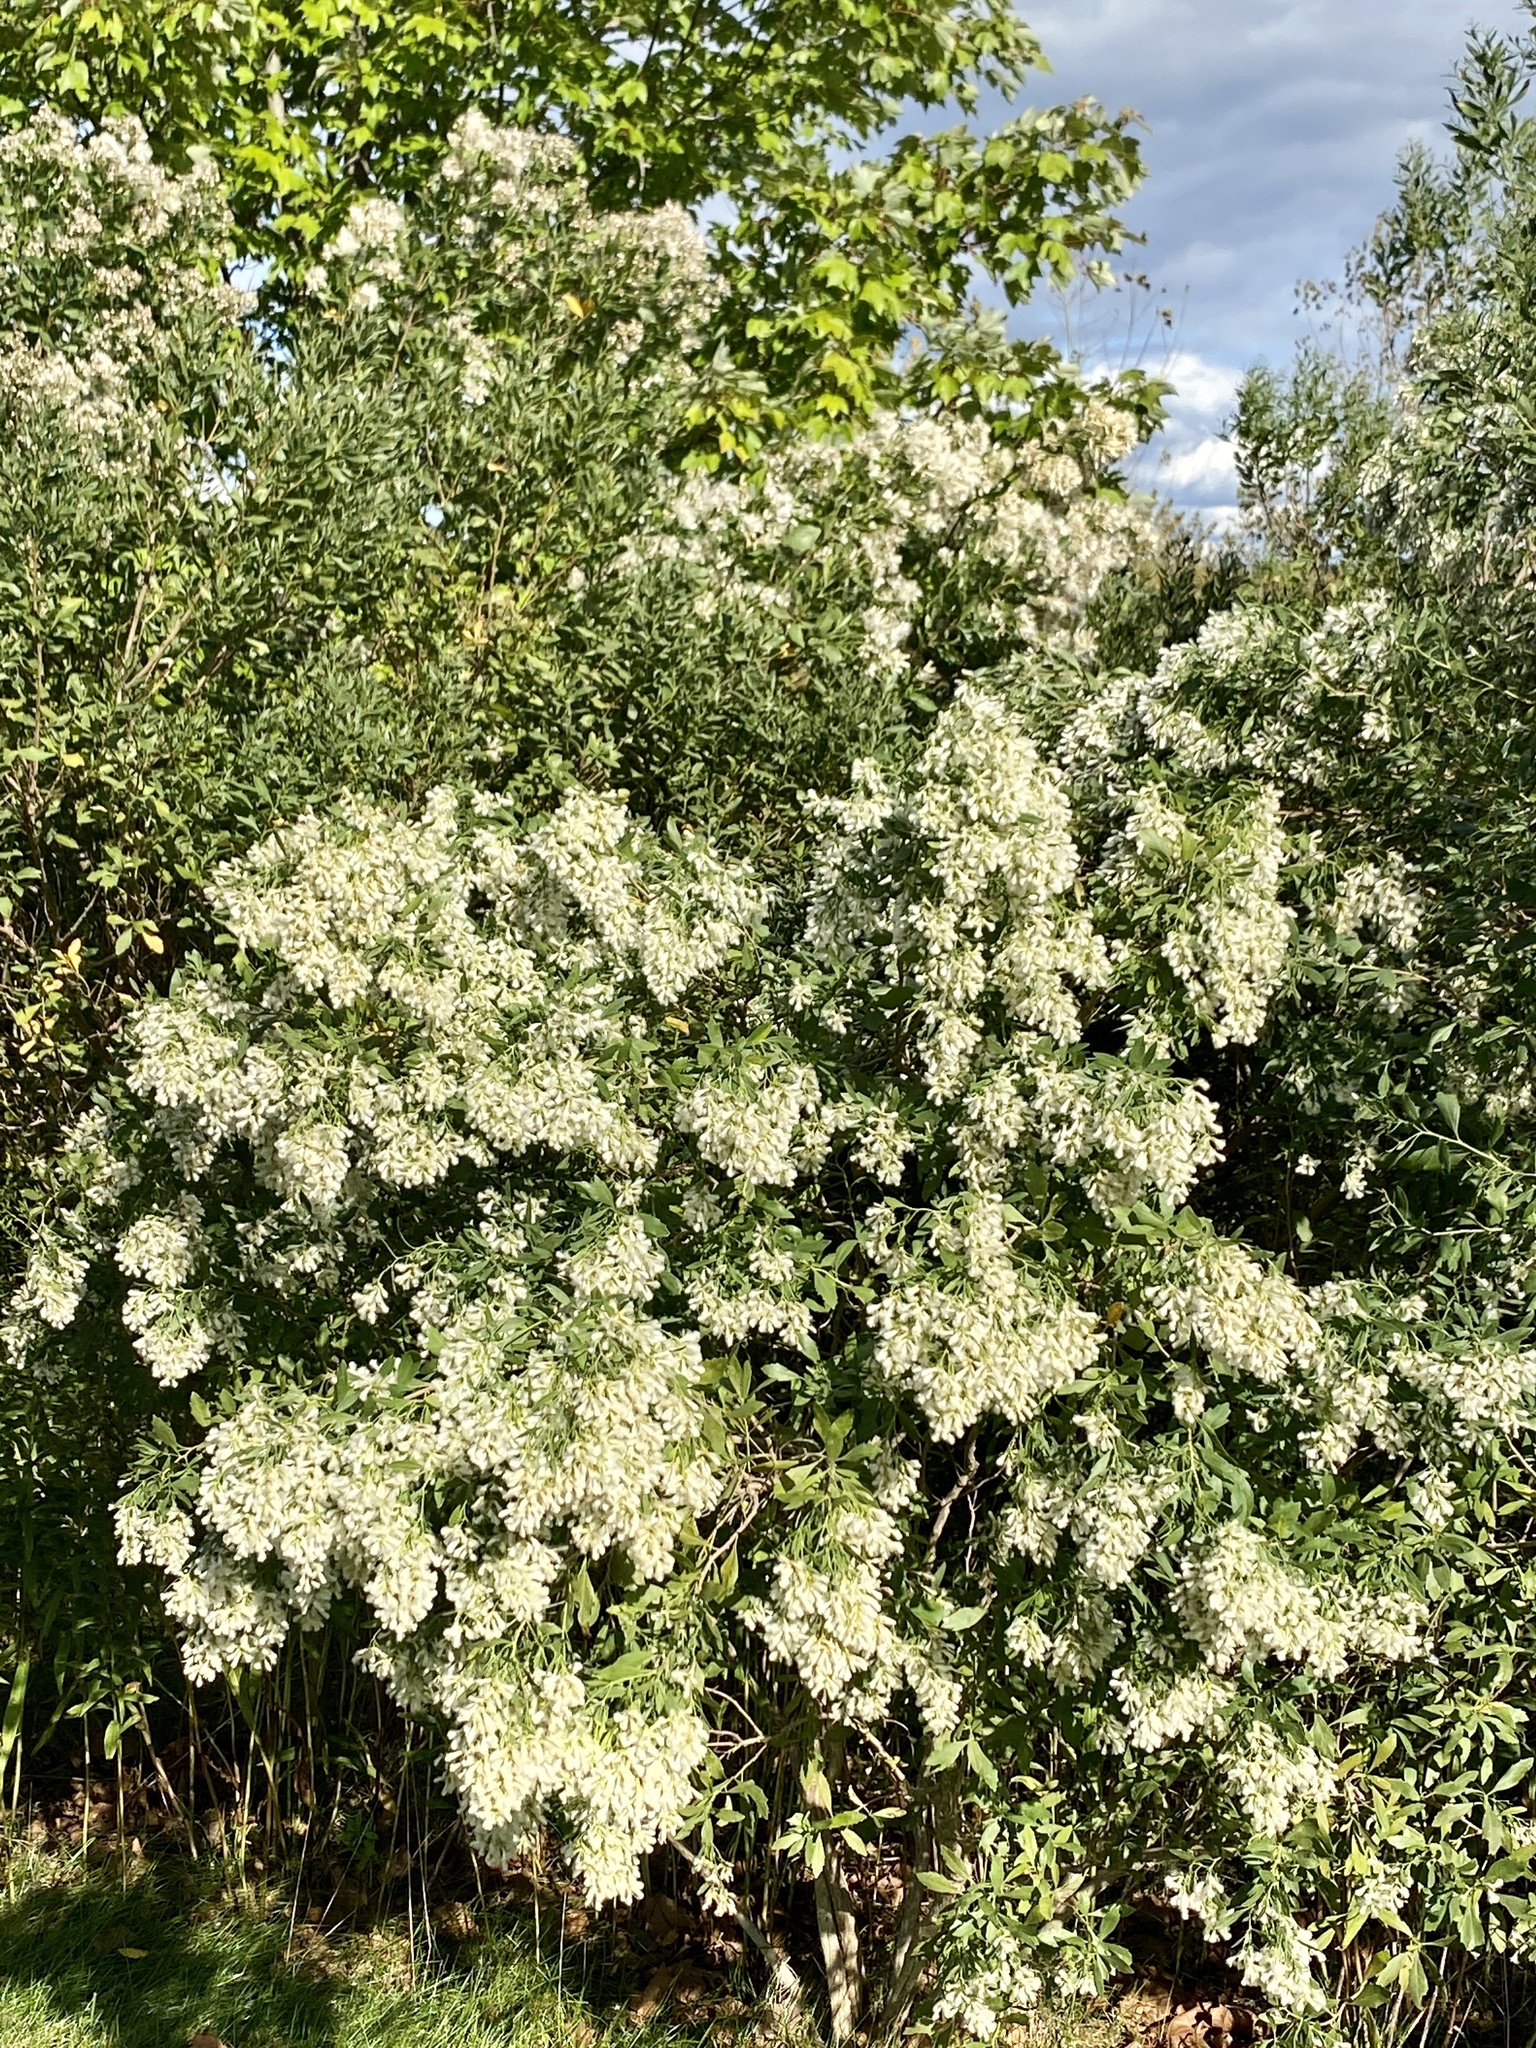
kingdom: Plantae
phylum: Tracheophyta
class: Magnoliopsida
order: Asterales
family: Asteraceae
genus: Baccharis
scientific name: Baccharis halimifolia
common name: Eastern baccharis
